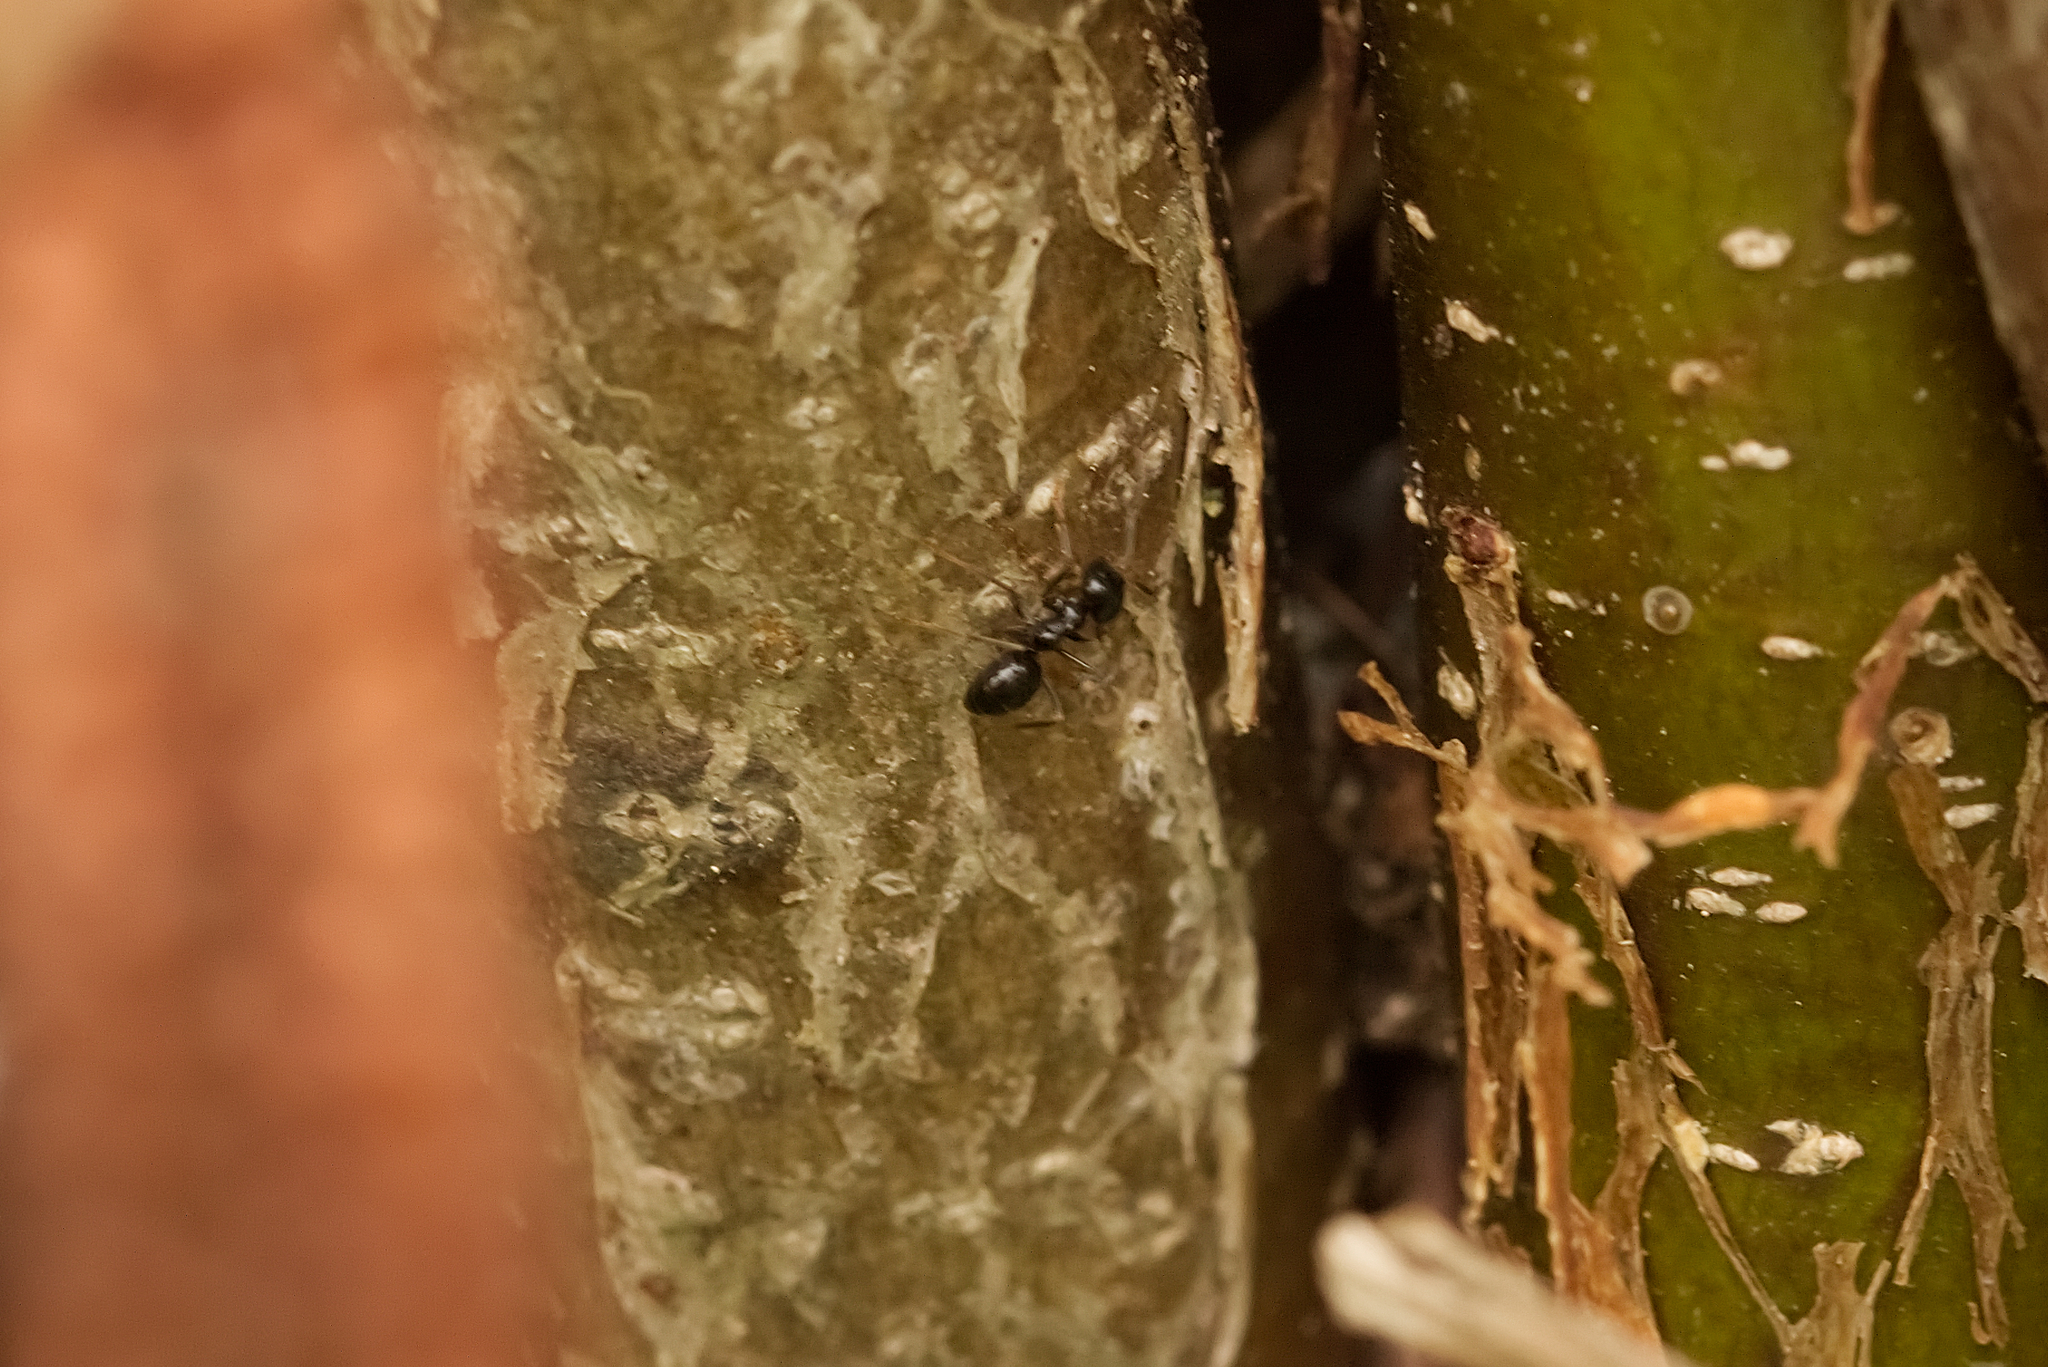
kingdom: Animalia
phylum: Arthropoda
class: Insecta
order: Hymenoptera
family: Formicidae
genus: Lasius
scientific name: Lasius fuliginosus
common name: Jet ant
